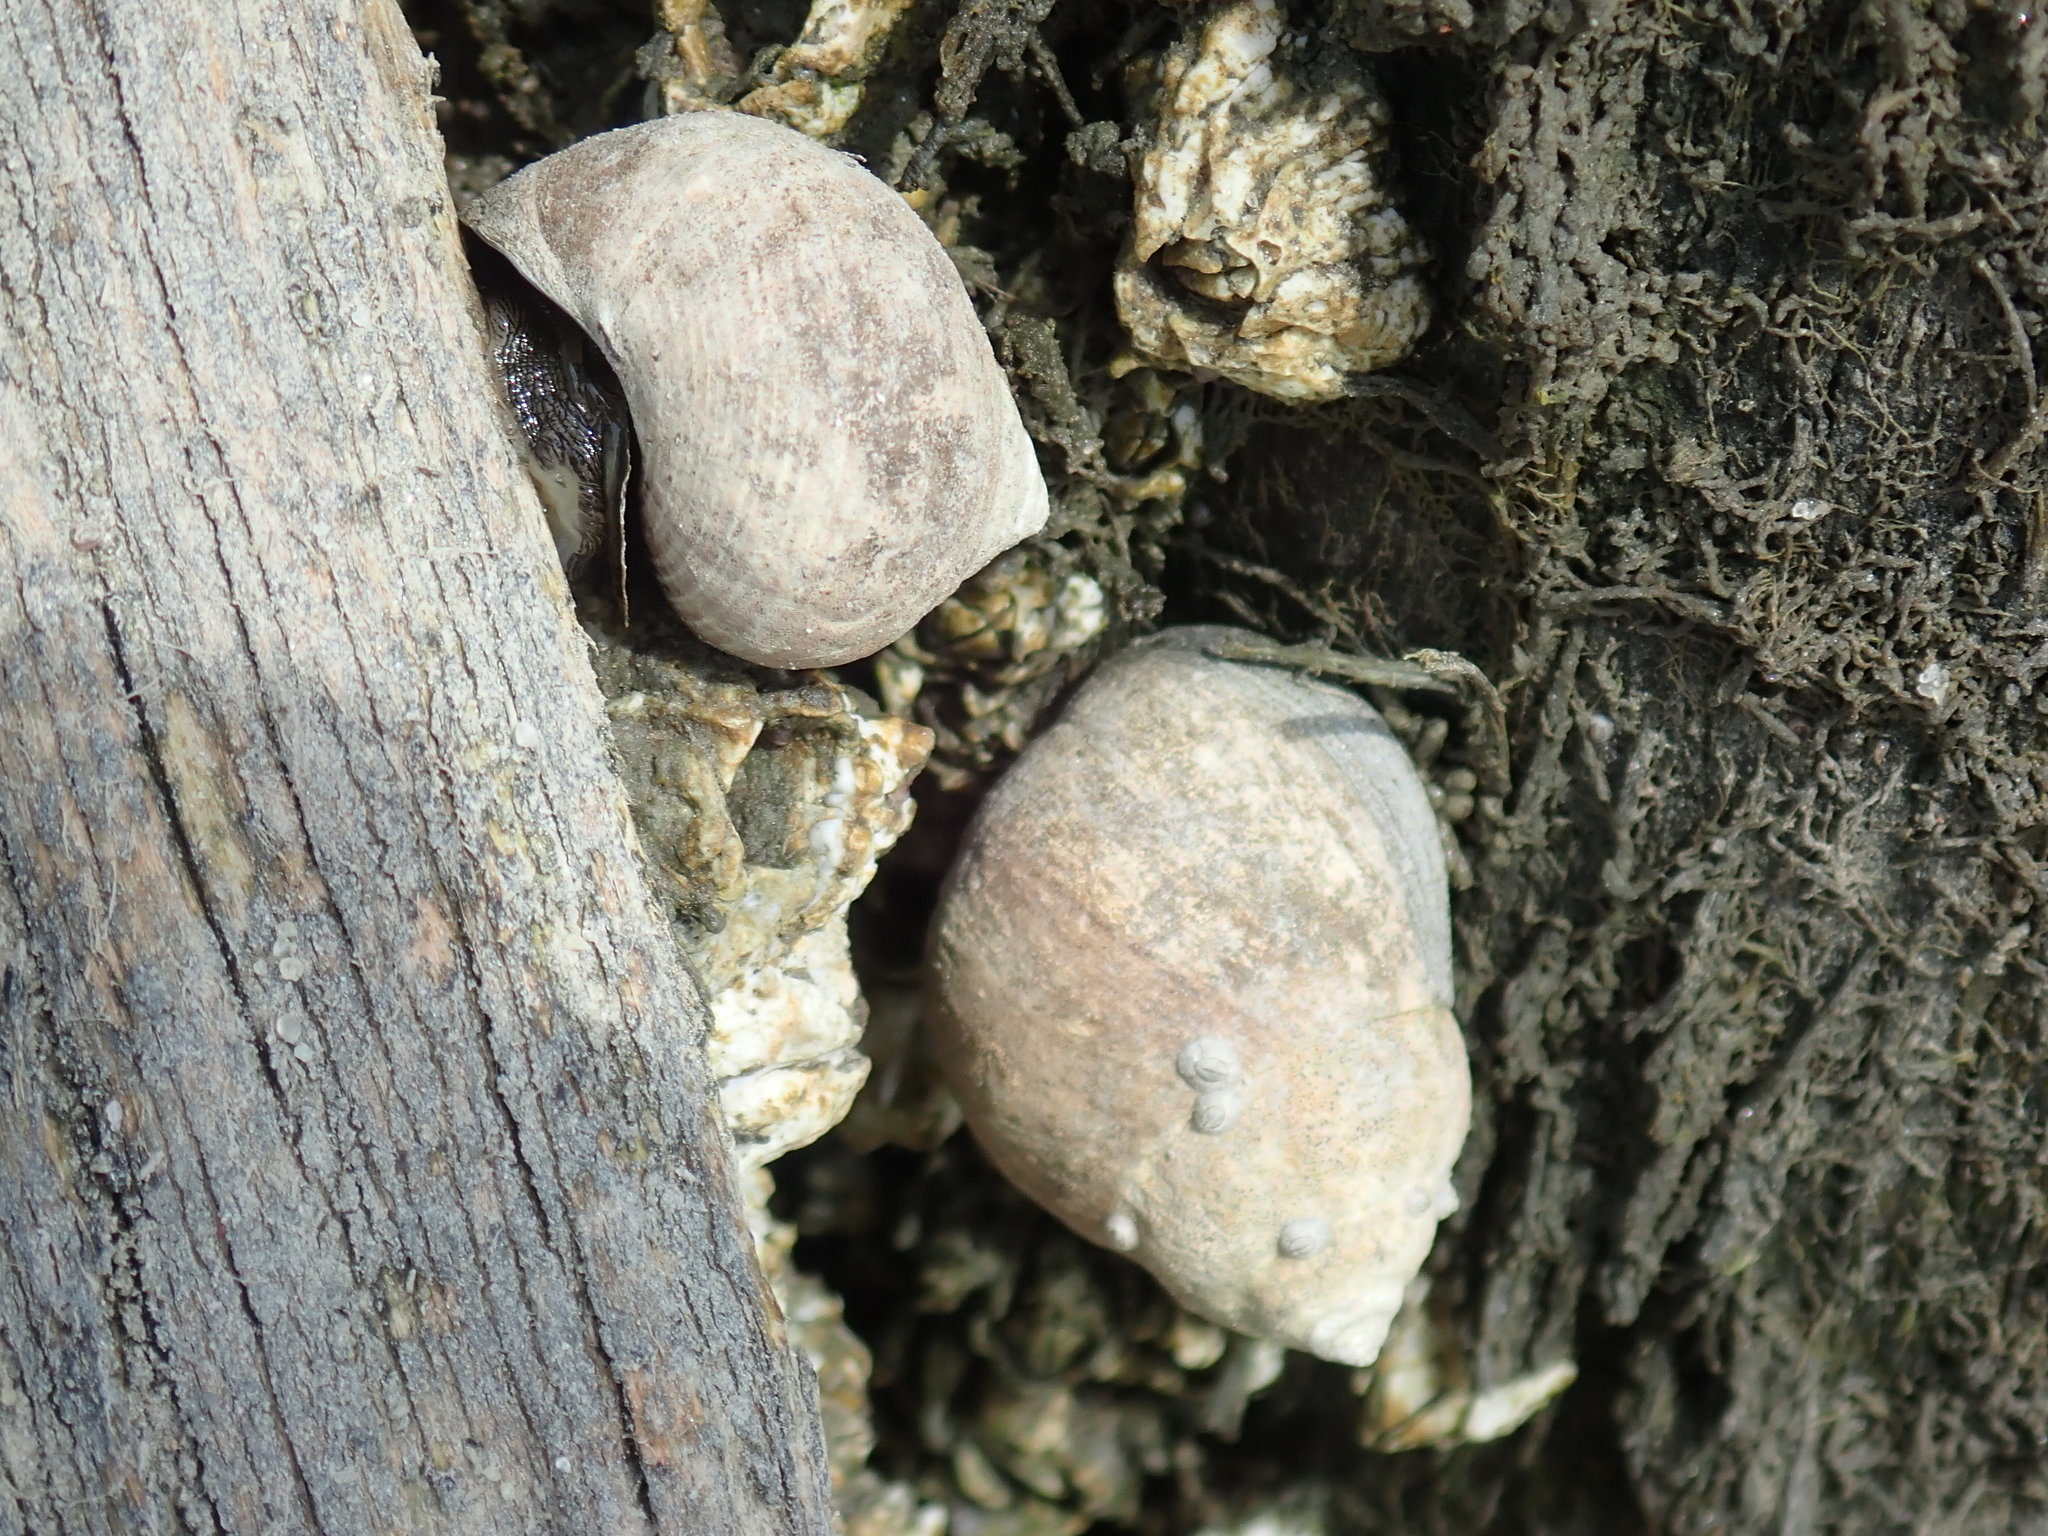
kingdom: Animalia
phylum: Mollusca
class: Gastropoda
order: Littorinimorpha
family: Littorinidae
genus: Littorina
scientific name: Littorina littorea
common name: Common periwinkle
